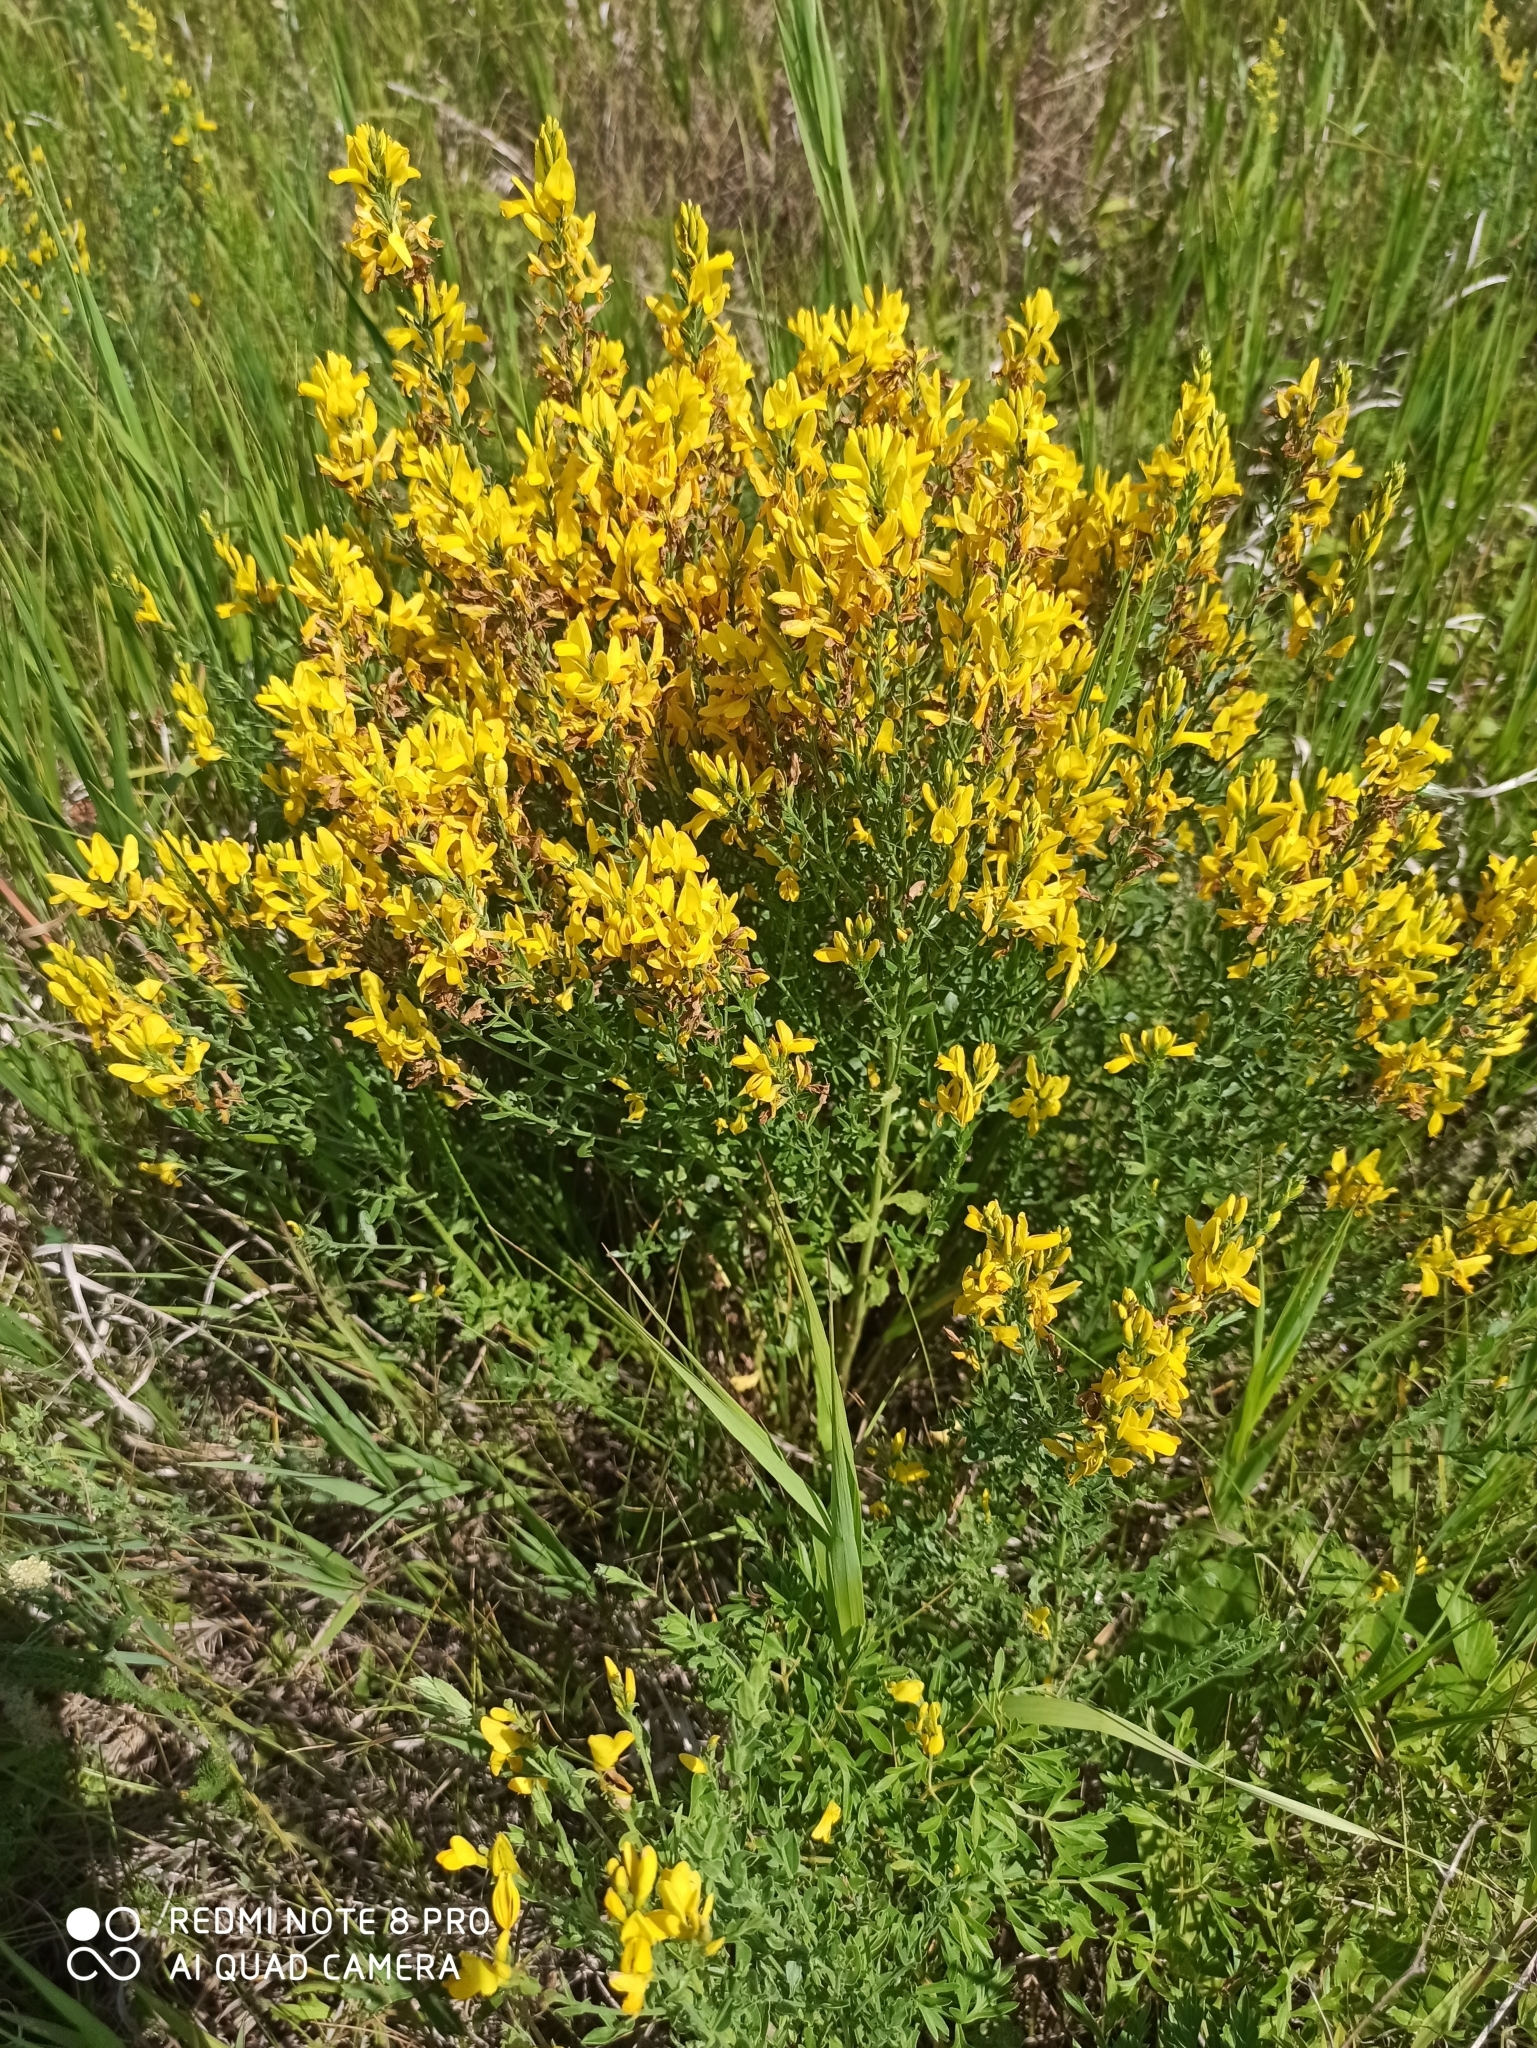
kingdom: Plantae
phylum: Tracheophyta
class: Magnoliopsida
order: Fabales
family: Fabaceae
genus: Genista
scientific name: Genista tinctoria
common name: Dyer's greenweed
